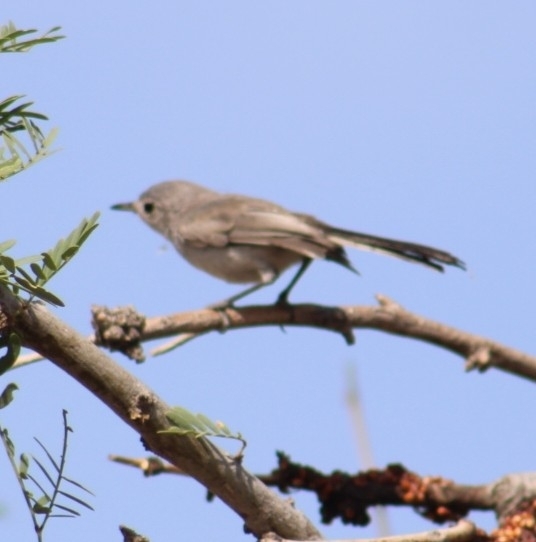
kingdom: Animalia
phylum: Chordata
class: Aves
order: Passeriformes
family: Polioptilidae
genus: Polioptila
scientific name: Polioptila melanura
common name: Black-tailed gnatcatcher
